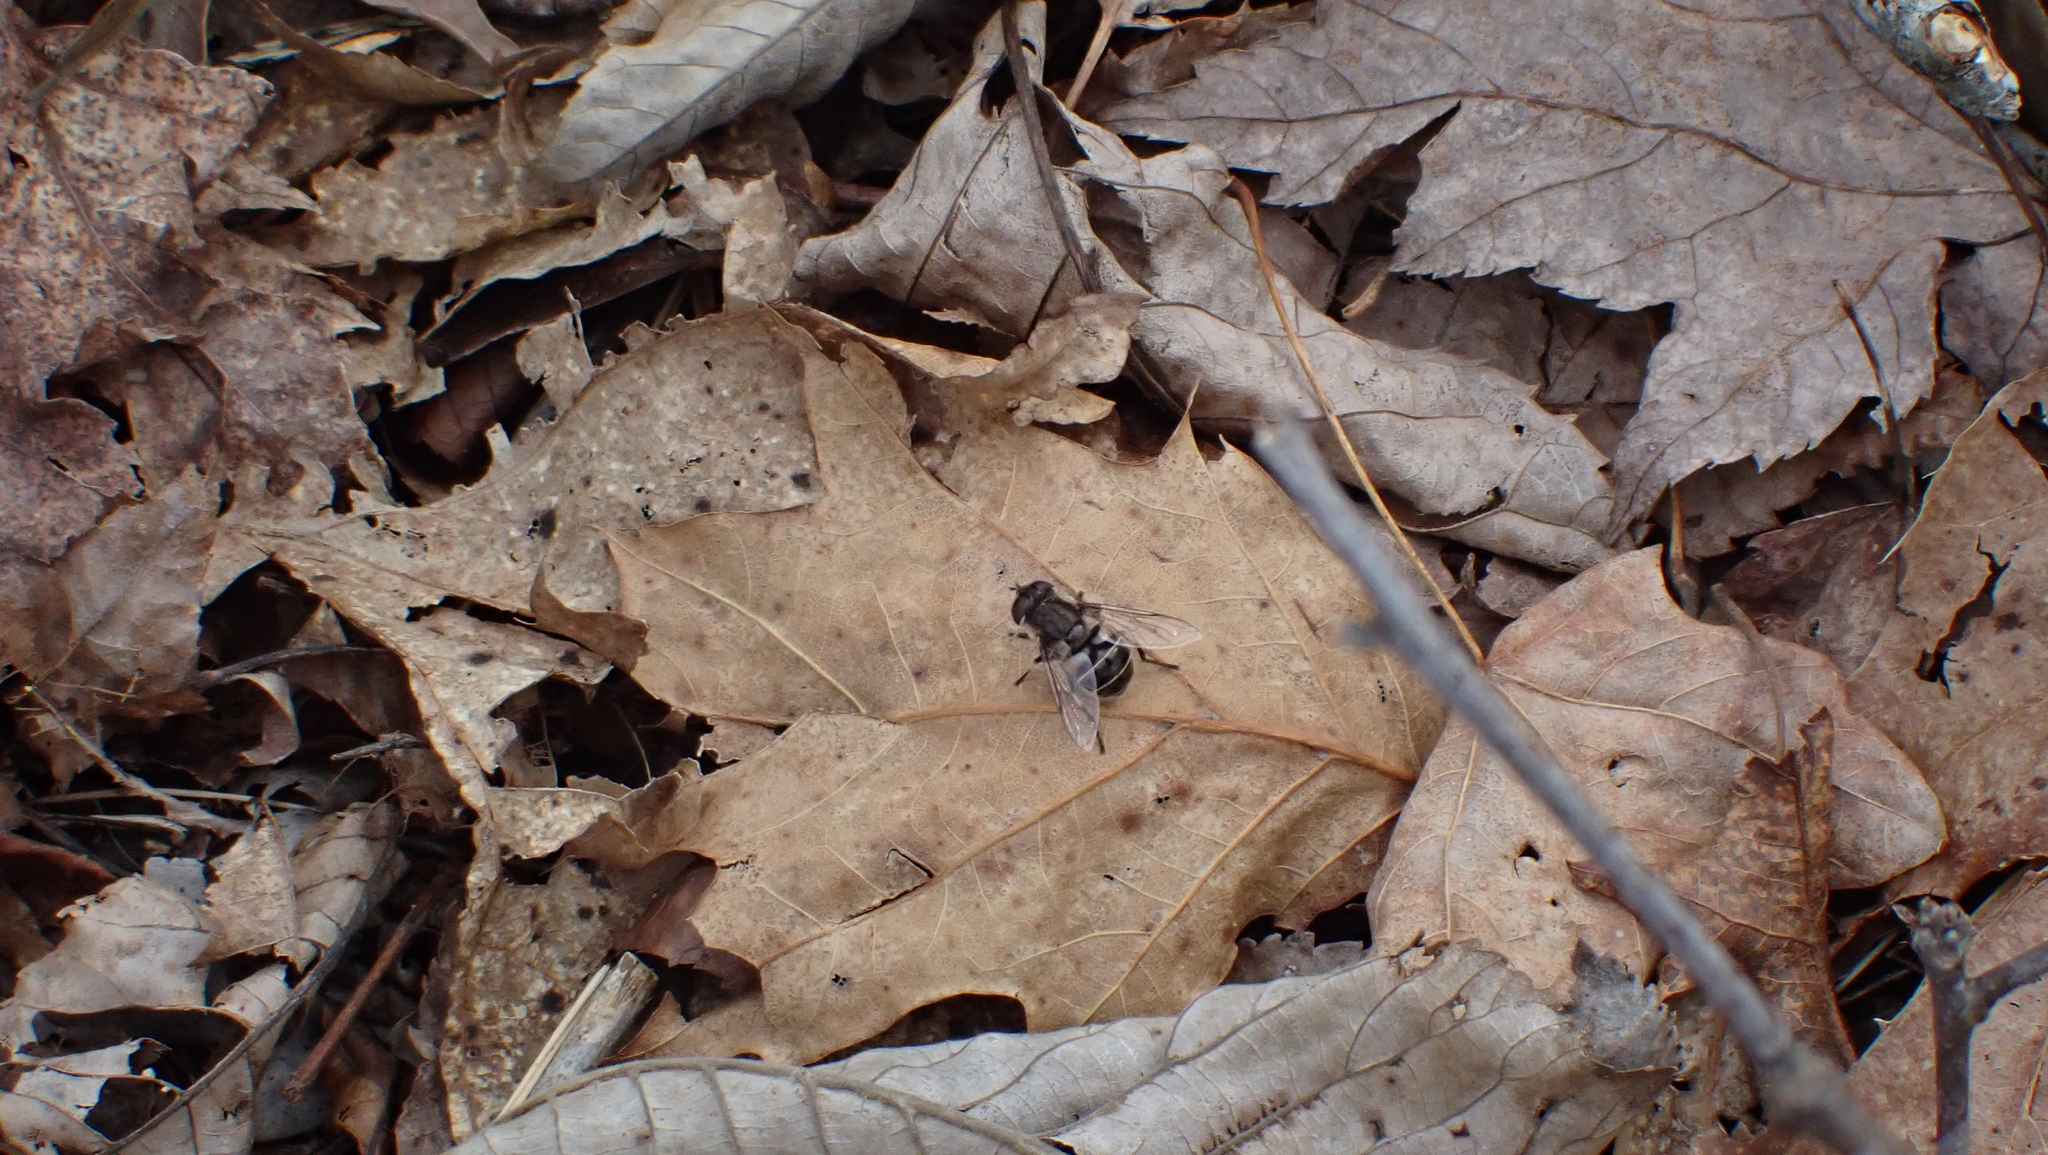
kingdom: Animalia
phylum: Arthropoda
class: Insecta
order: Diptera
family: Syrphidae
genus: Eristalis
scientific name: Eristalis dimidiata
